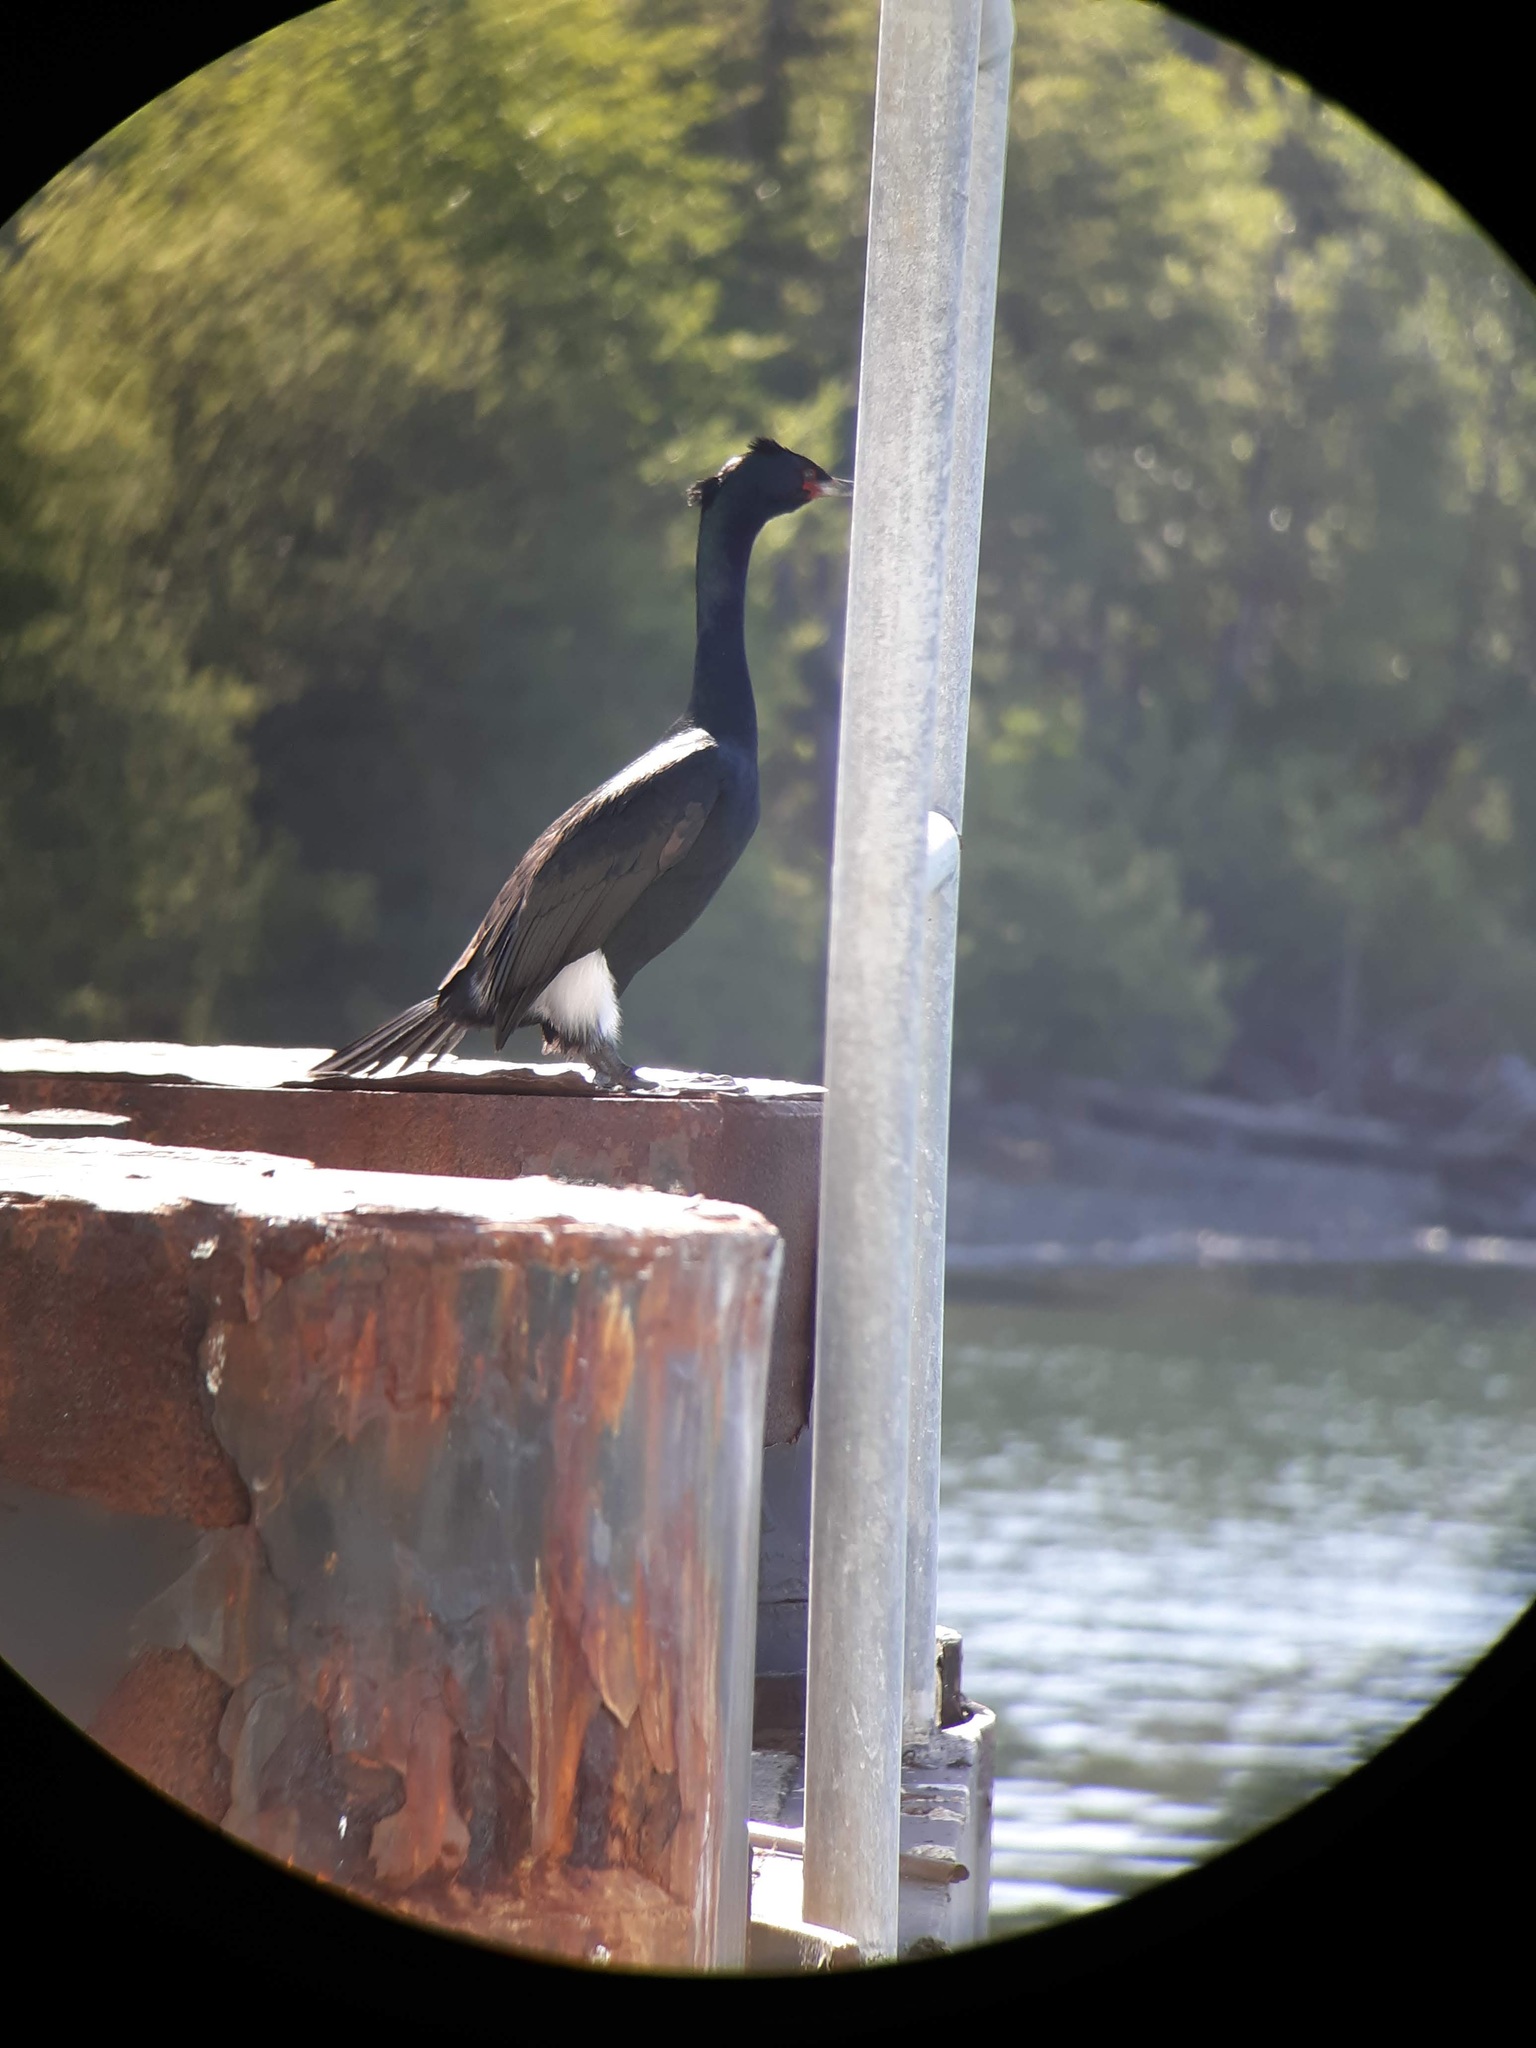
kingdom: Animalia
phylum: Chordata
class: Aves
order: Suliformes
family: Phalacrocoracidae
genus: Phalacrocorax
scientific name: Phalacrocorax pelagicus
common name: Pelagic cormorant
